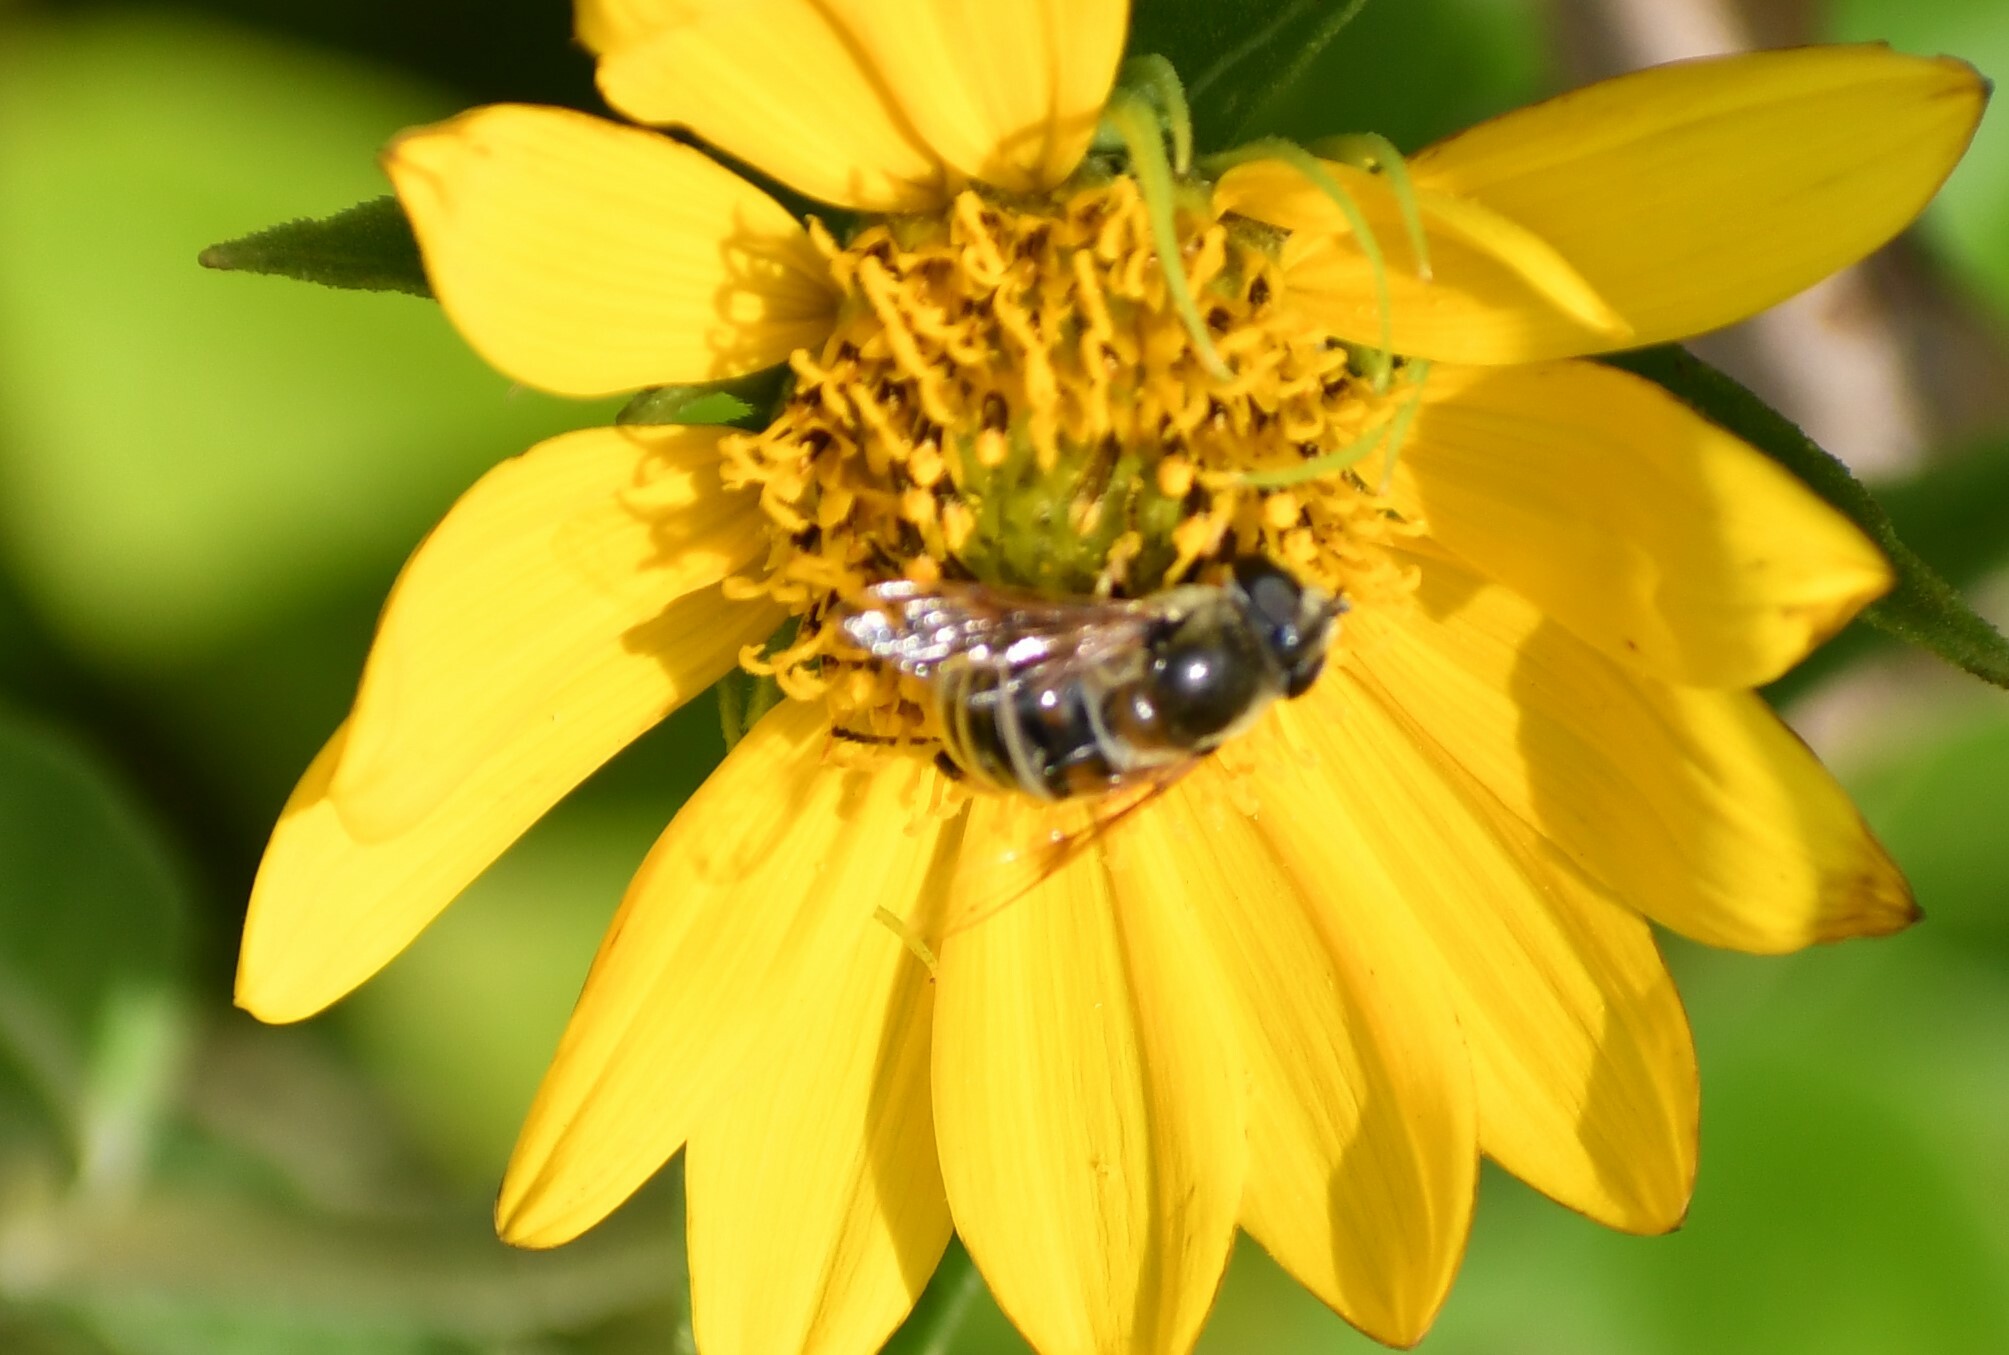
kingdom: Animalia
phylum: Arthropoda
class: Insecta
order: Diptera
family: Syrphidae
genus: Eristalis
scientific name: Eristalis stipator
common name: Yellow-shouldered drone fly
